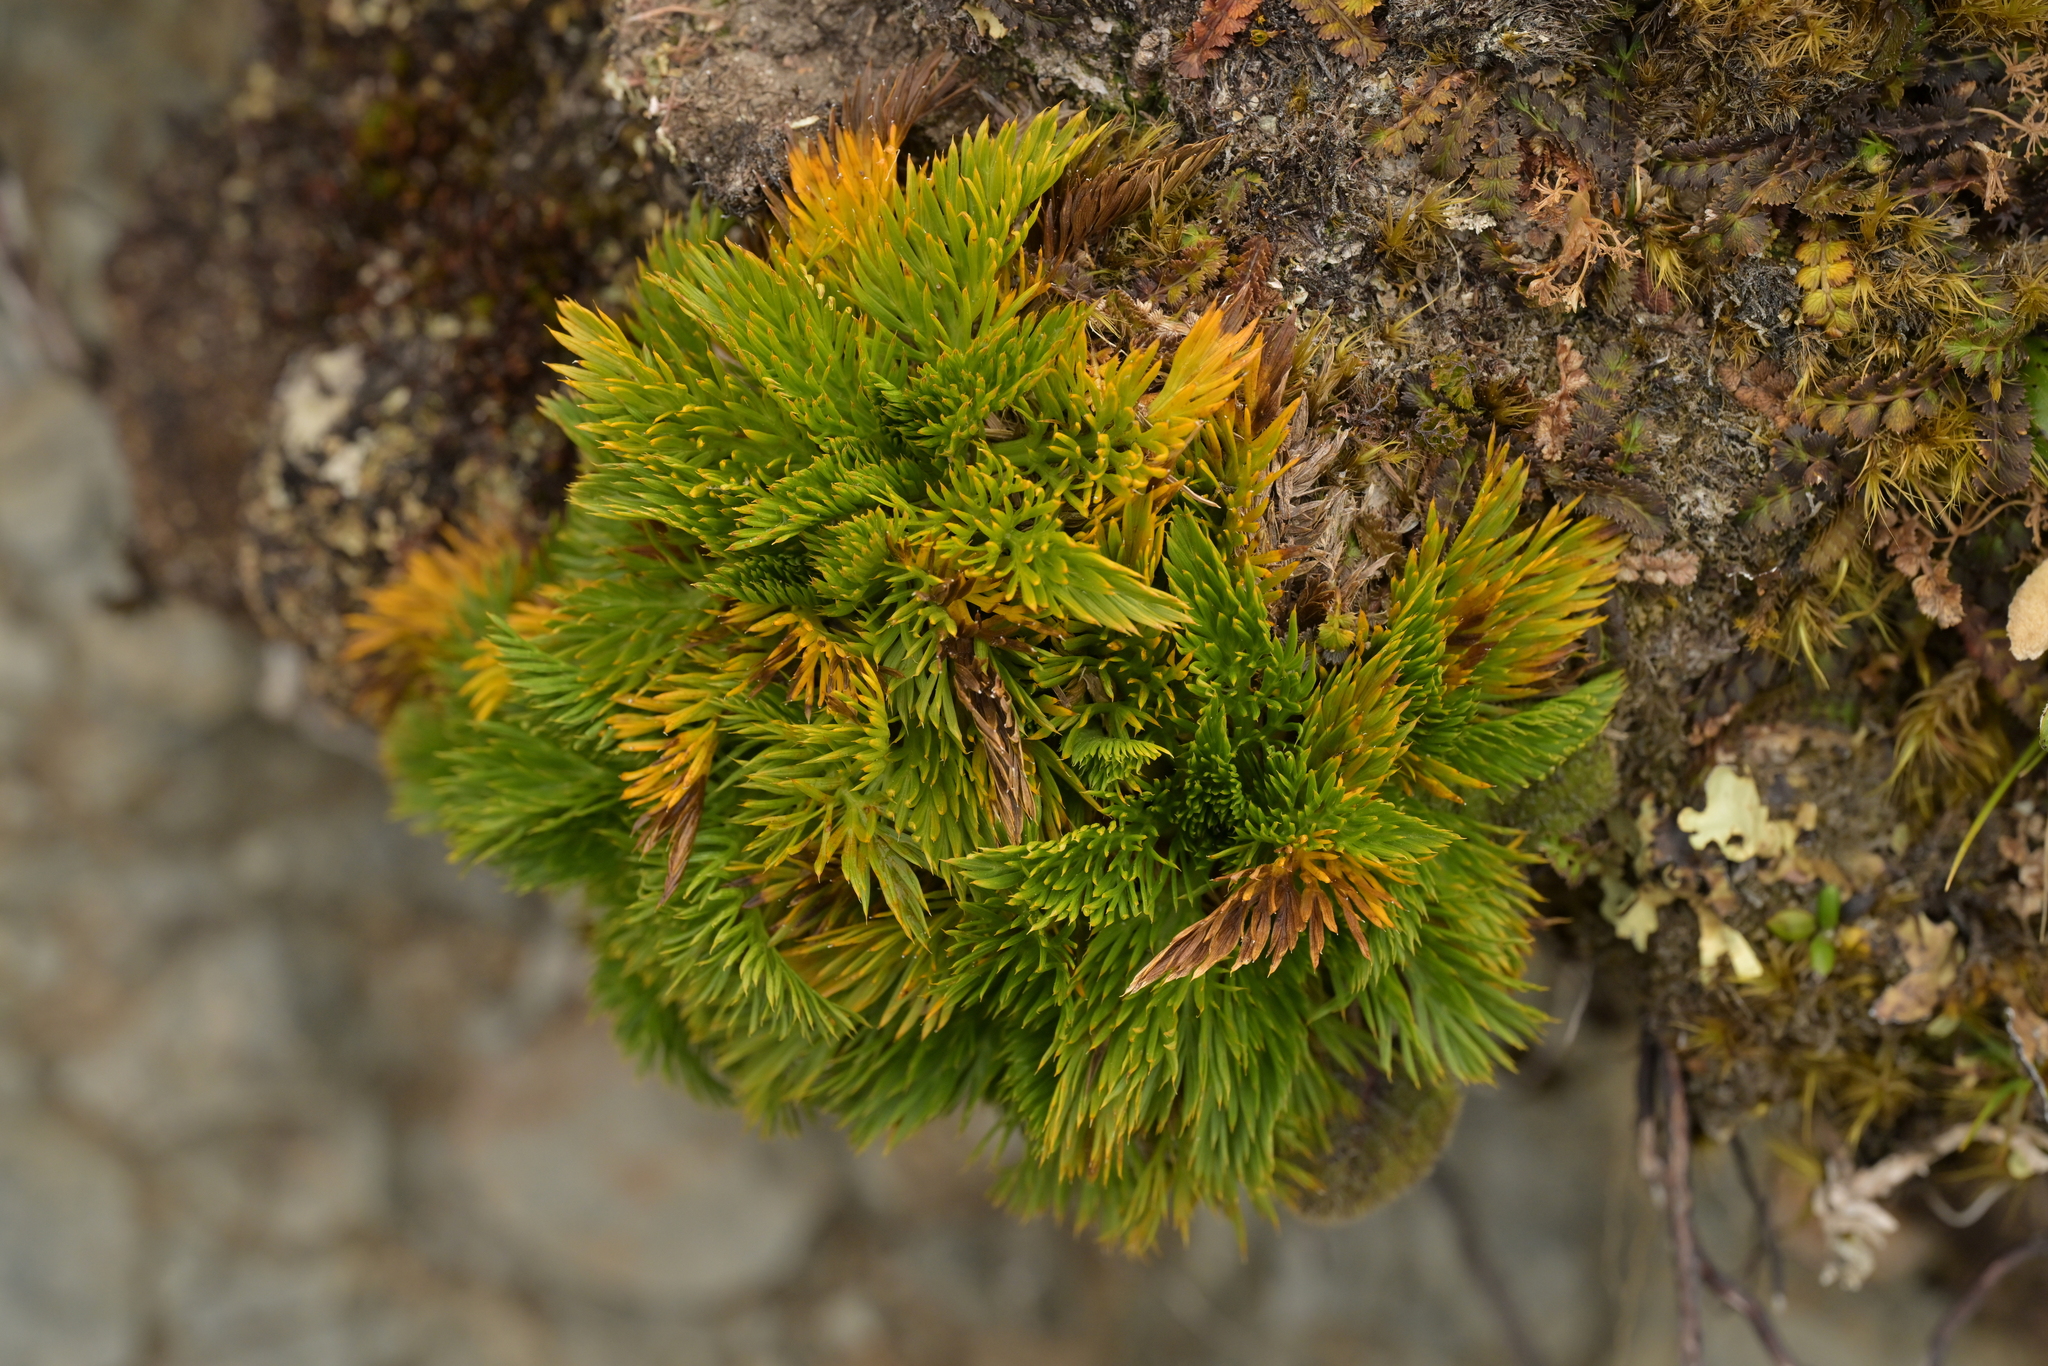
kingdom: Plantae
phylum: Tracheophyta
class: Magnoliopsida
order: Apiales
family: Apiaceae
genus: Aciphylla
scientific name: Aciphylla dissecta
